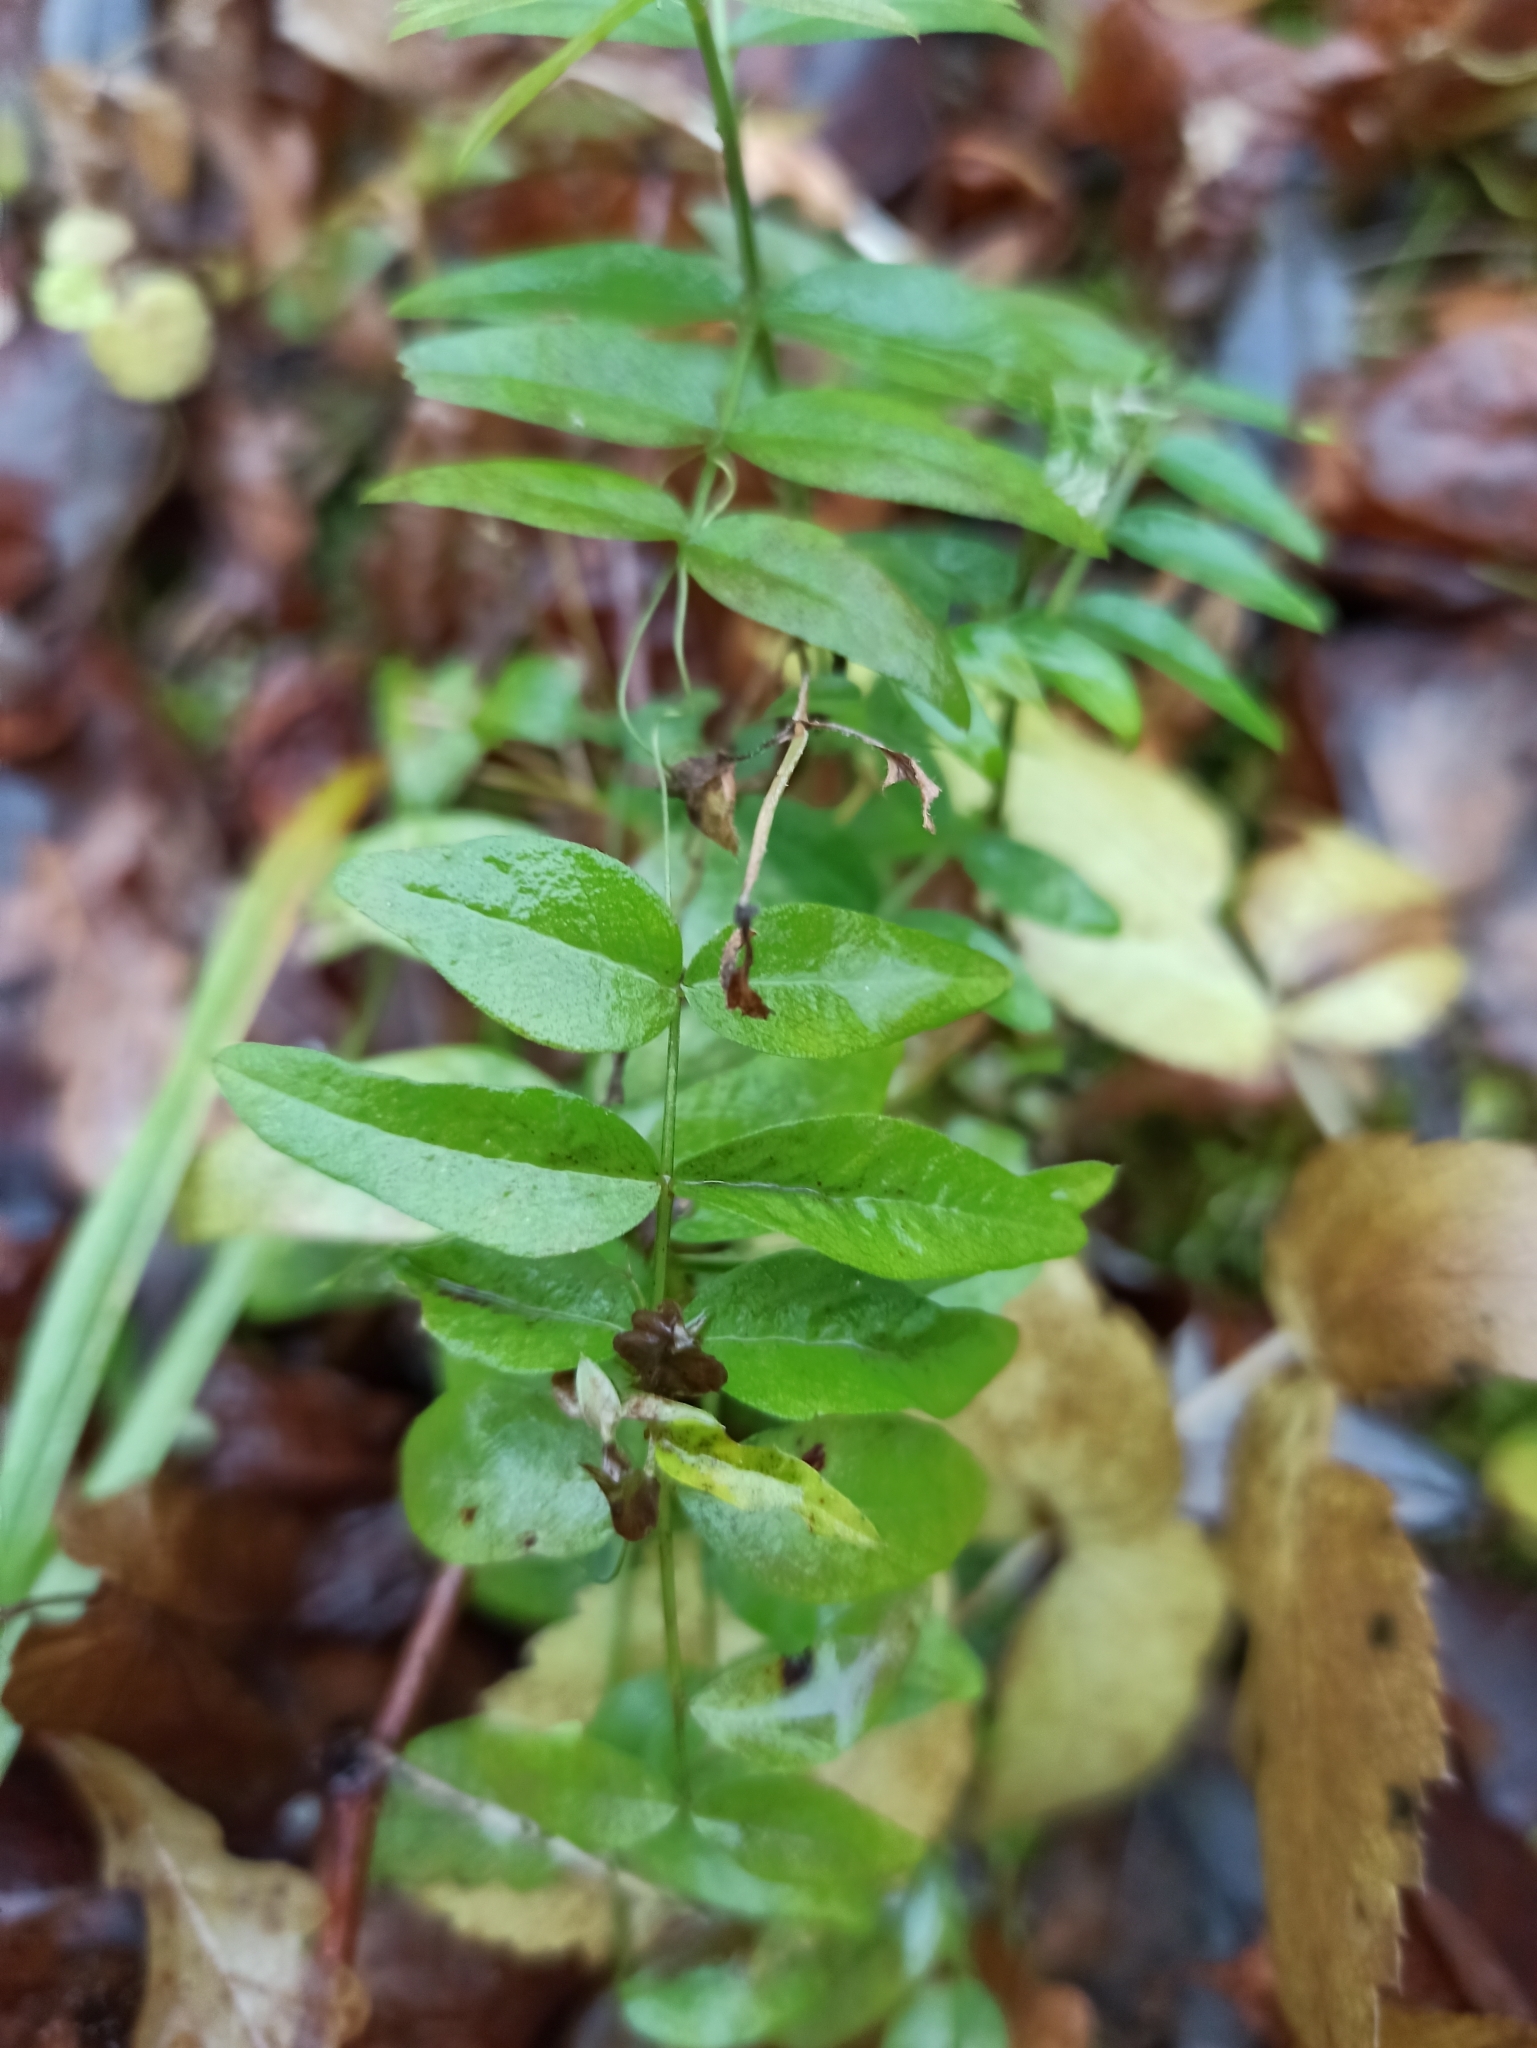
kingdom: Plantae
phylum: Tracheophyta
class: Magnoliopsida
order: Fabales
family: Fabaceae
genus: Vicia
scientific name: Vicia sepium
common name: Bush vetch
